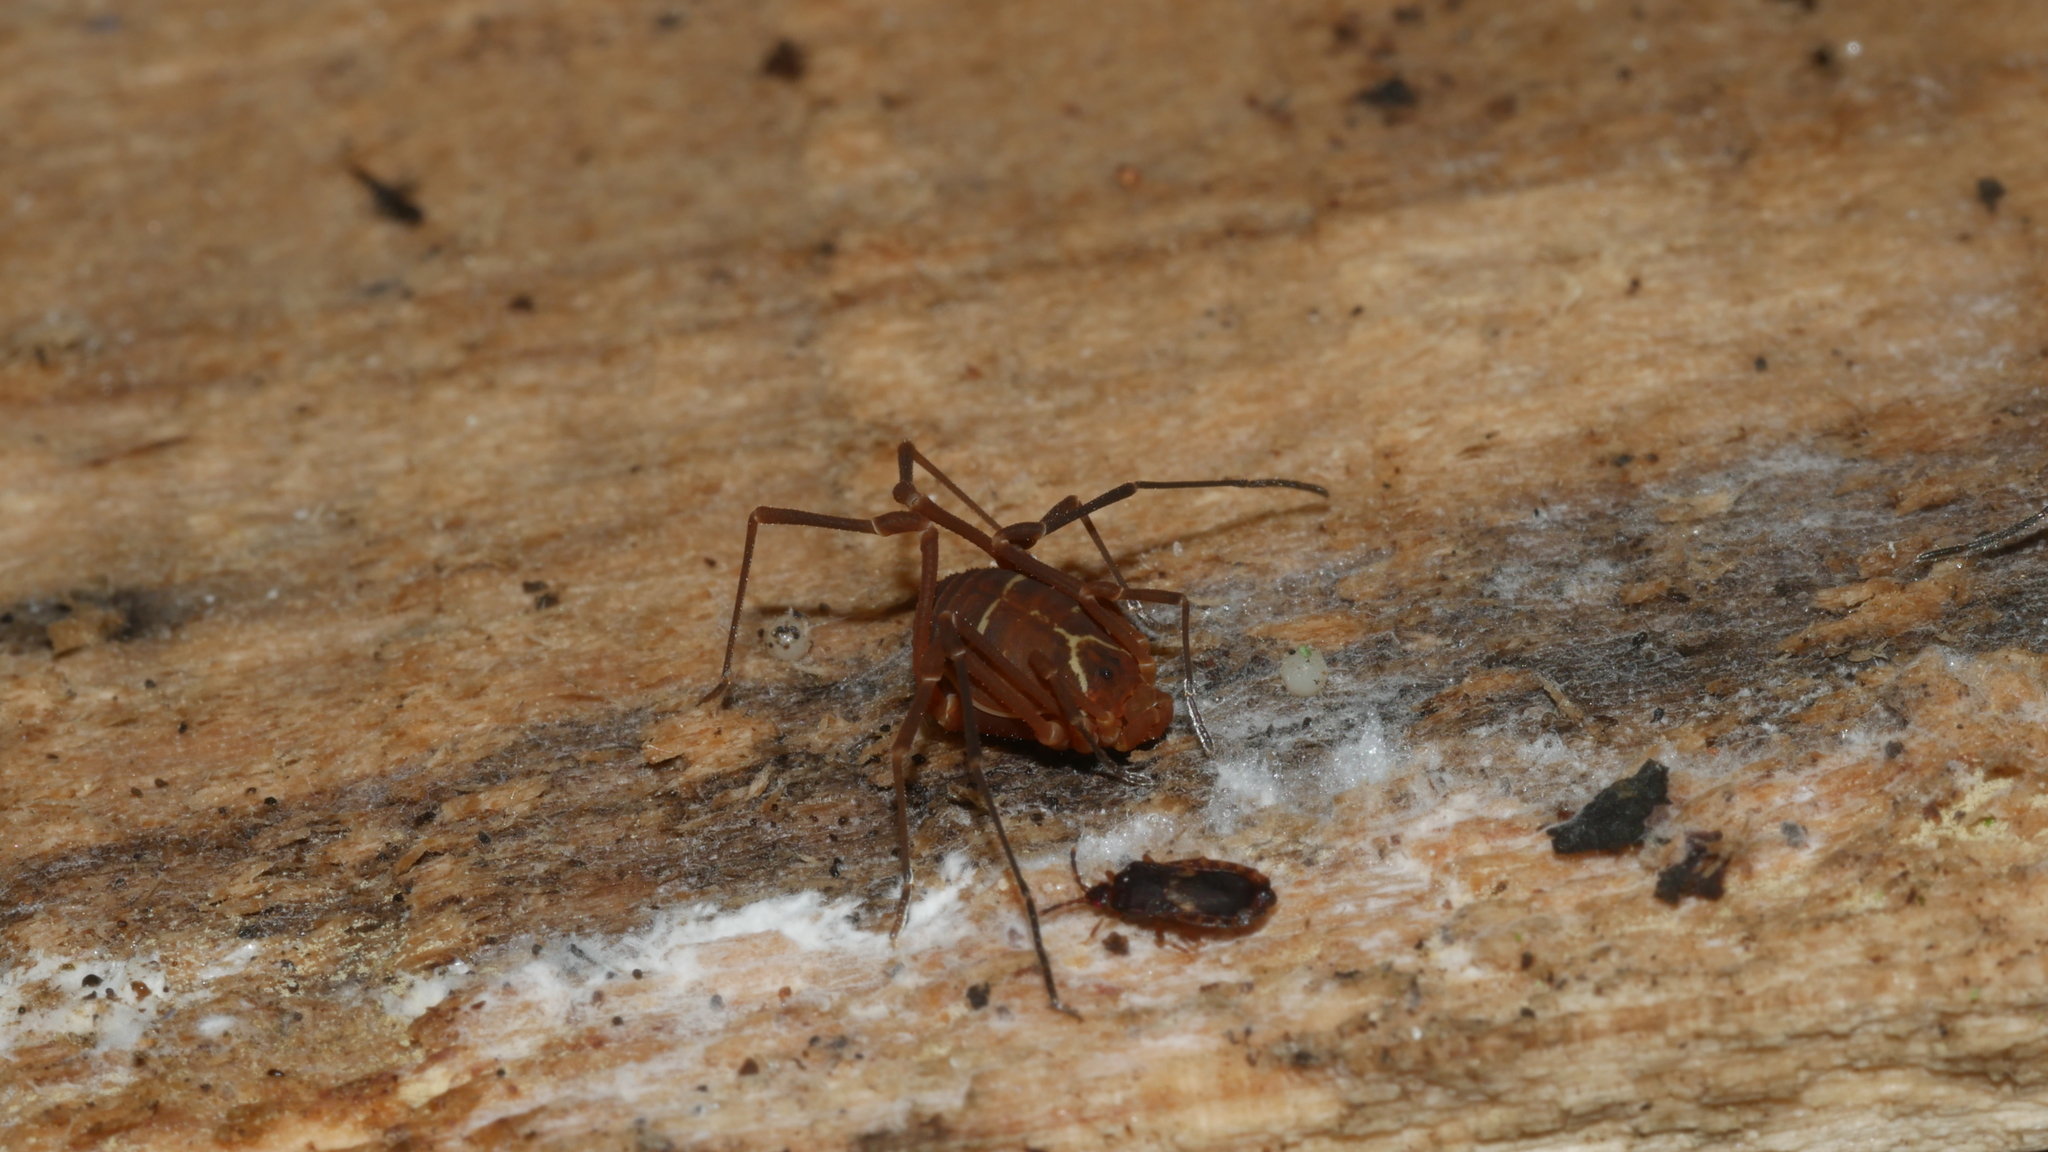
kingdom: Animalia
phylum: Arthropoda
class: Arachnida
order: Opiliones
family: Cosmetidae
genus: Libitioides
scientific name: Libitioides sayi
